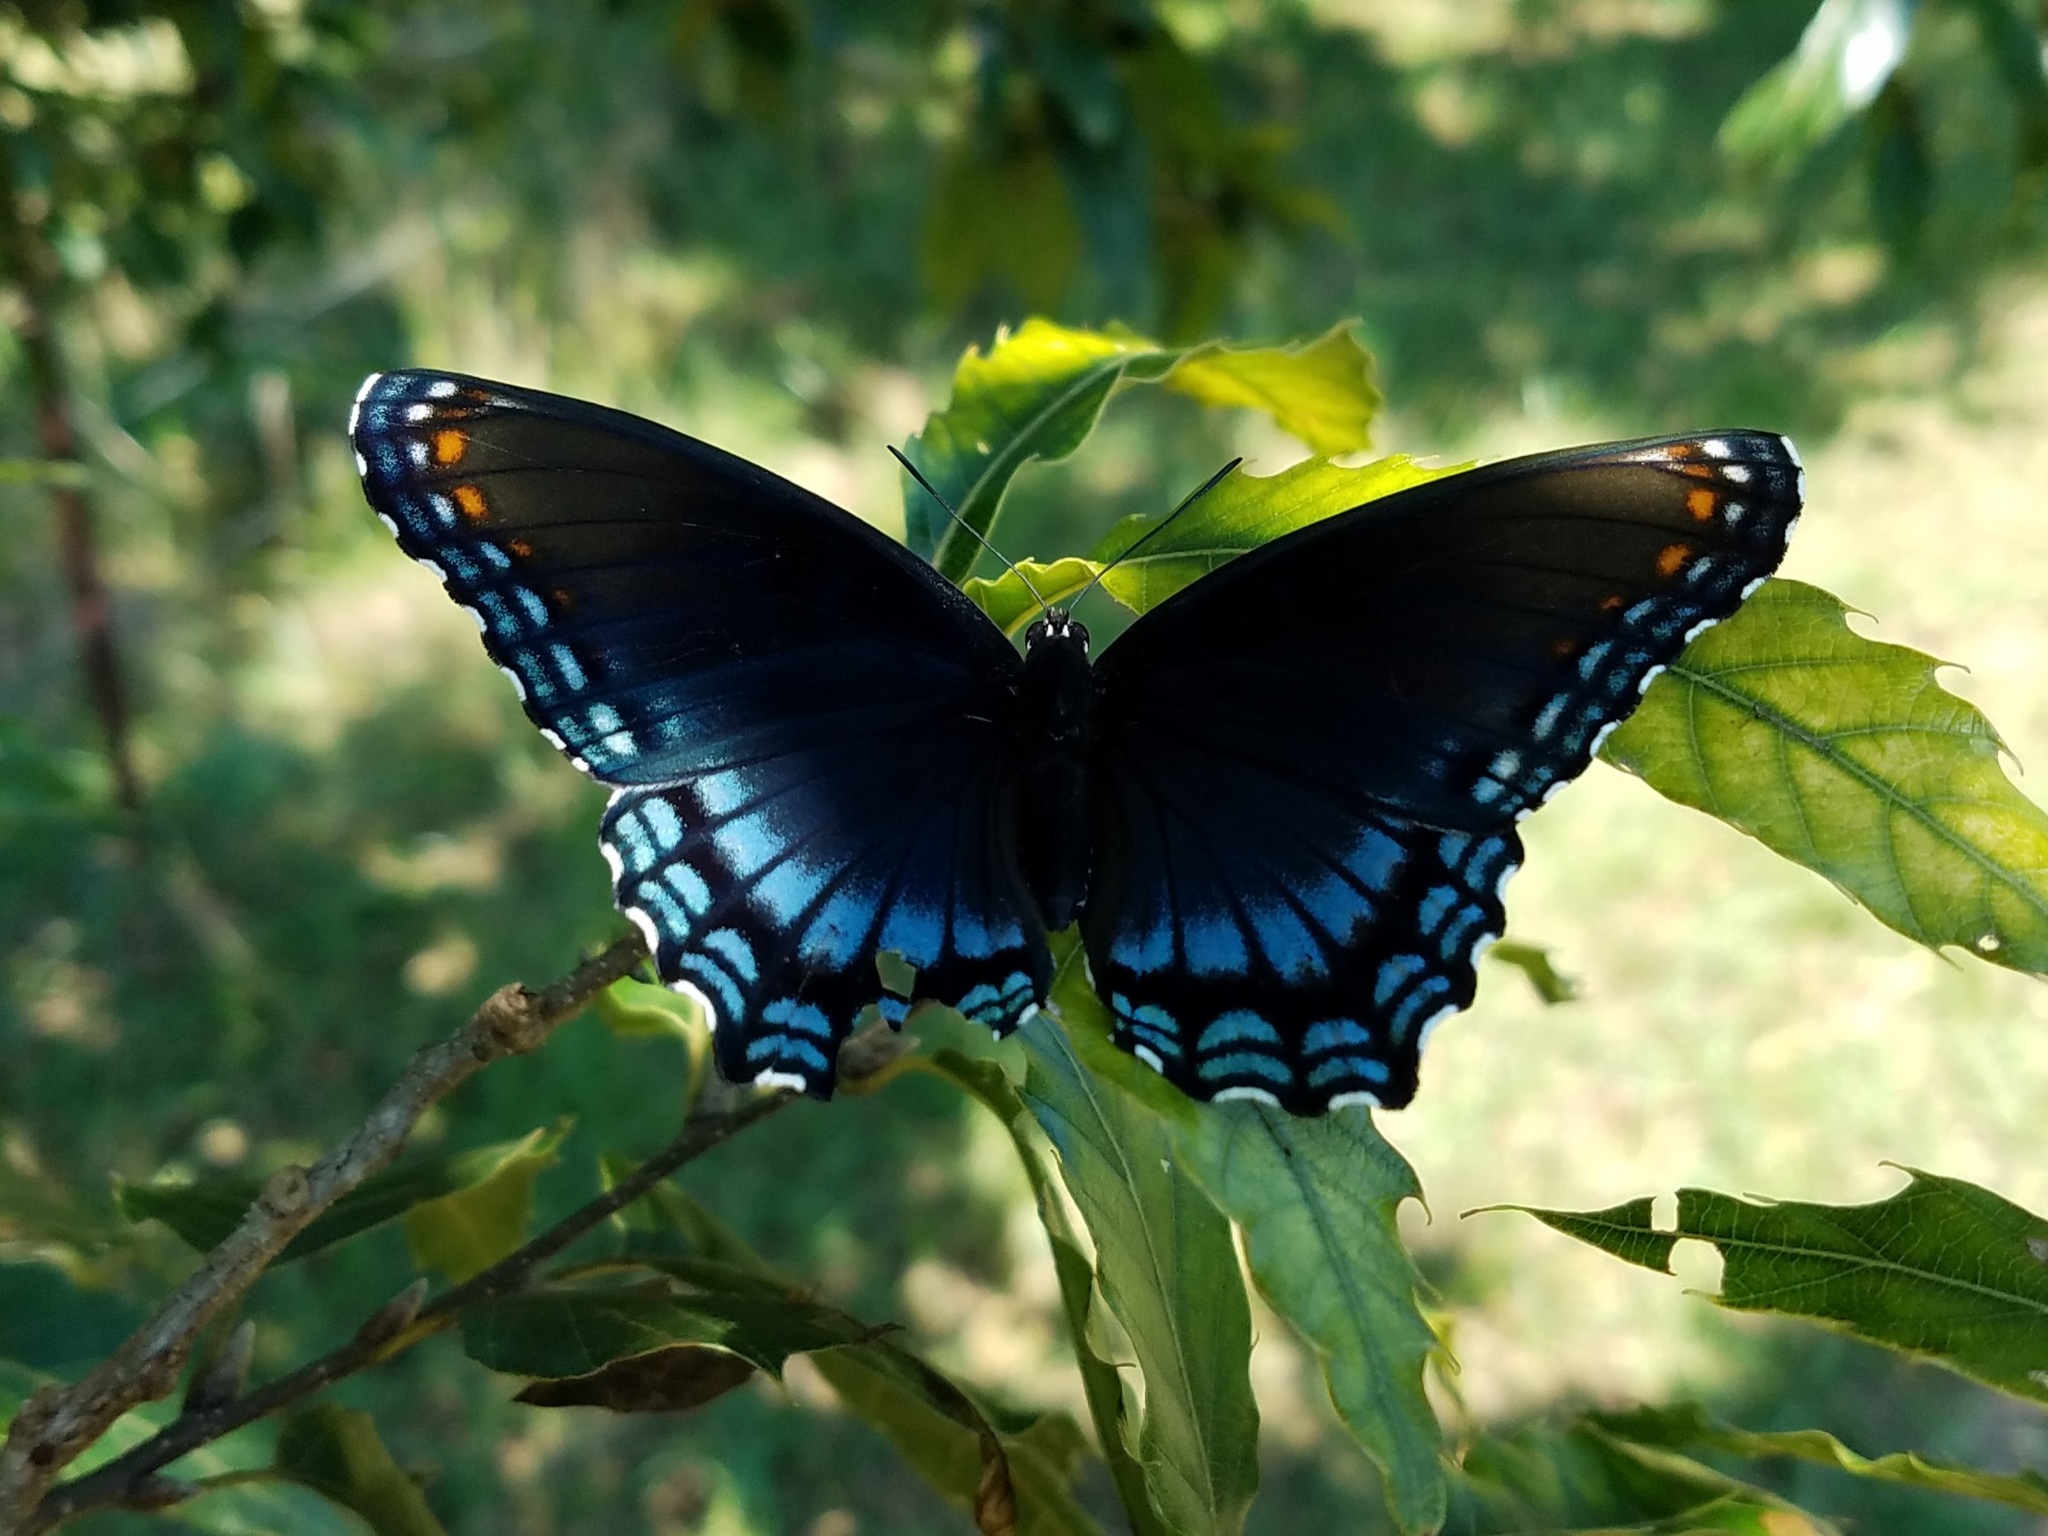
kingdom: Animalia
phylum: Arthropoda
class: Insecta
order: Lepidoptera
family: Nymphalidae
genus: Limenitis
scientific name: Limenitis arthemis
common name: Red-spotted admiral
